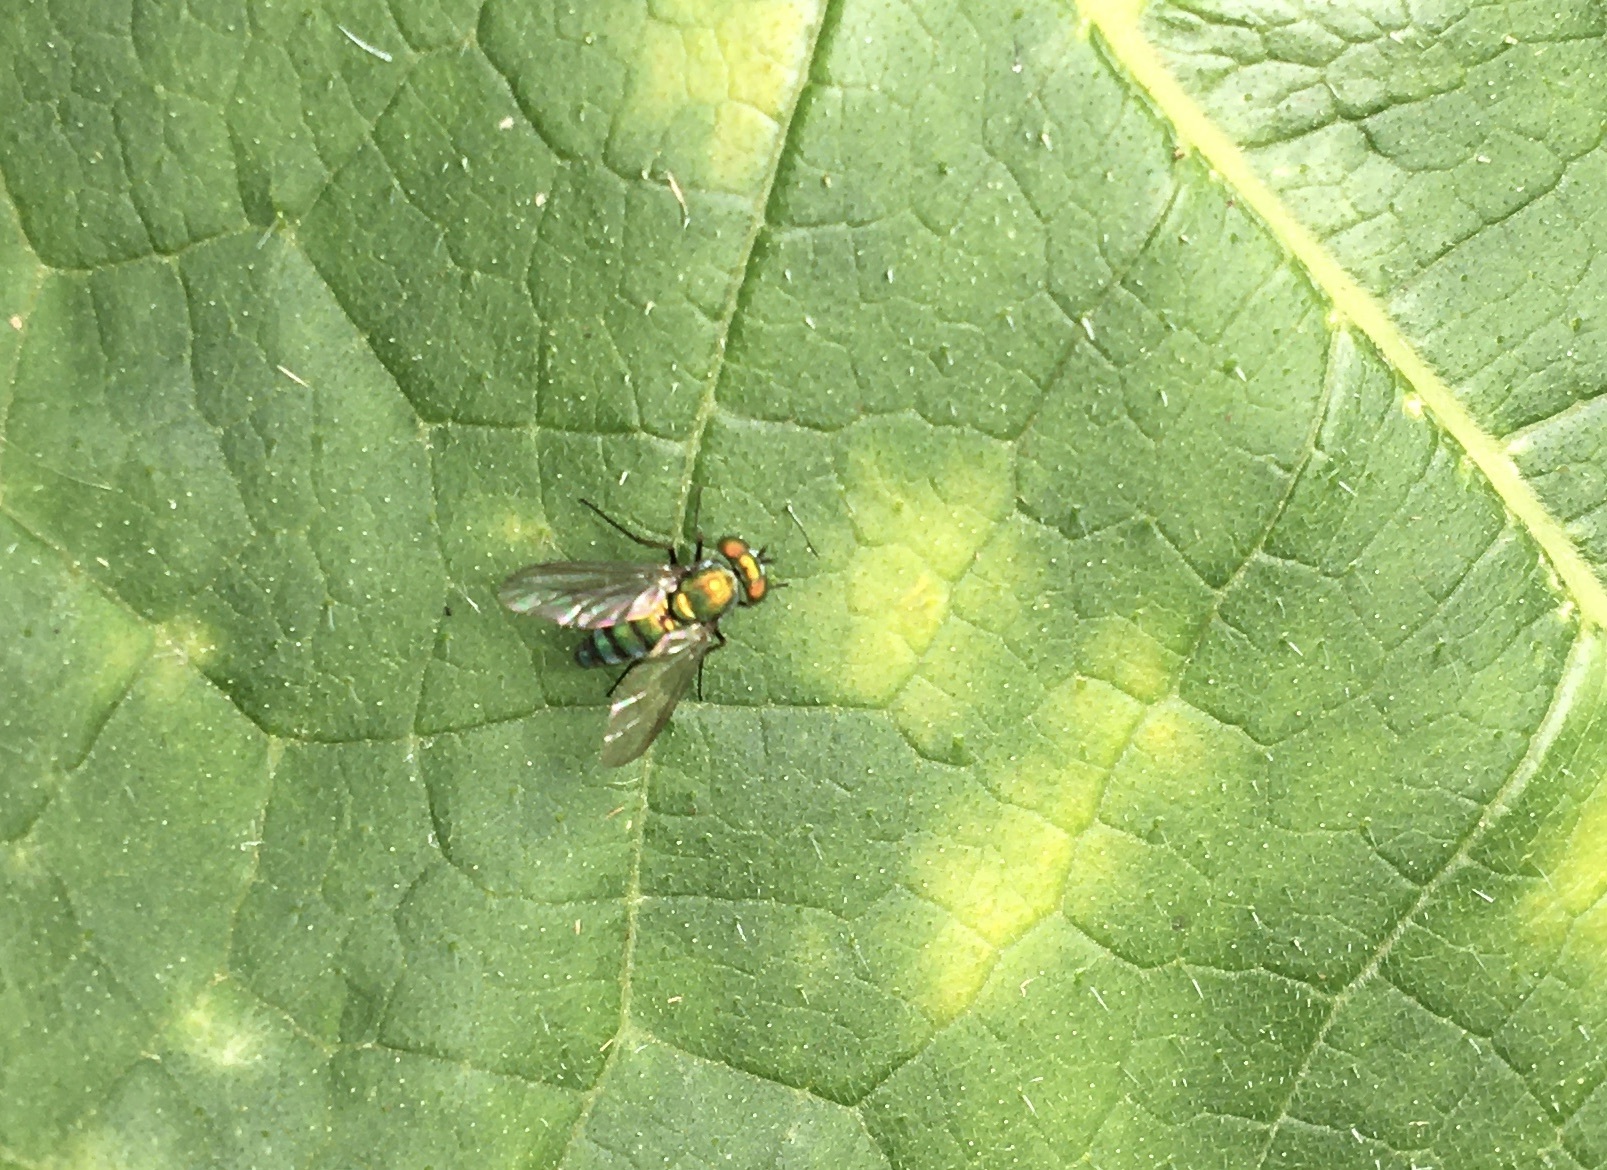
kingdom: Animalia
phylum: Arthropoda
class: Insecta
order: Diptera
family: Dolichopodidae
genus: Condylostylus
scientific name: Condylostylus longicornis
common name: Long-legged fly
